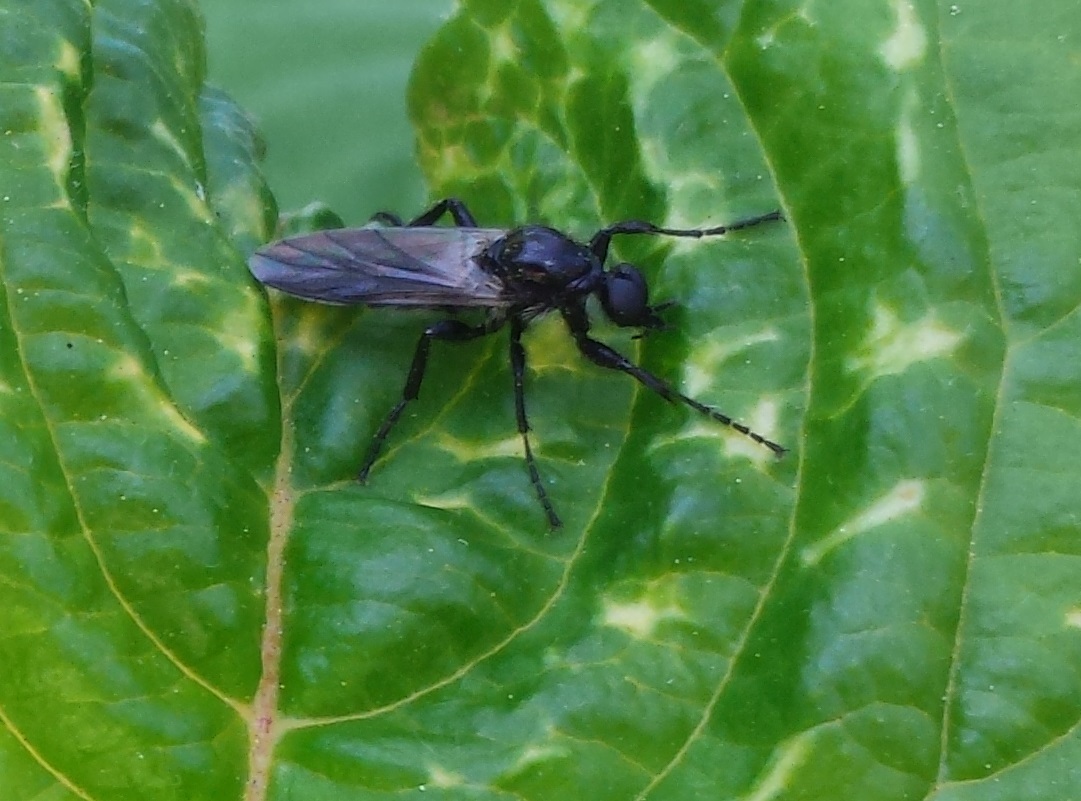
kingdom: Animalia
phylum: Arthropoda
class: Insecta
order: Diptera
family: Bibionidae
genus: Bibio
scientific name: Bibio albipennis
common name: White-winged march fly
